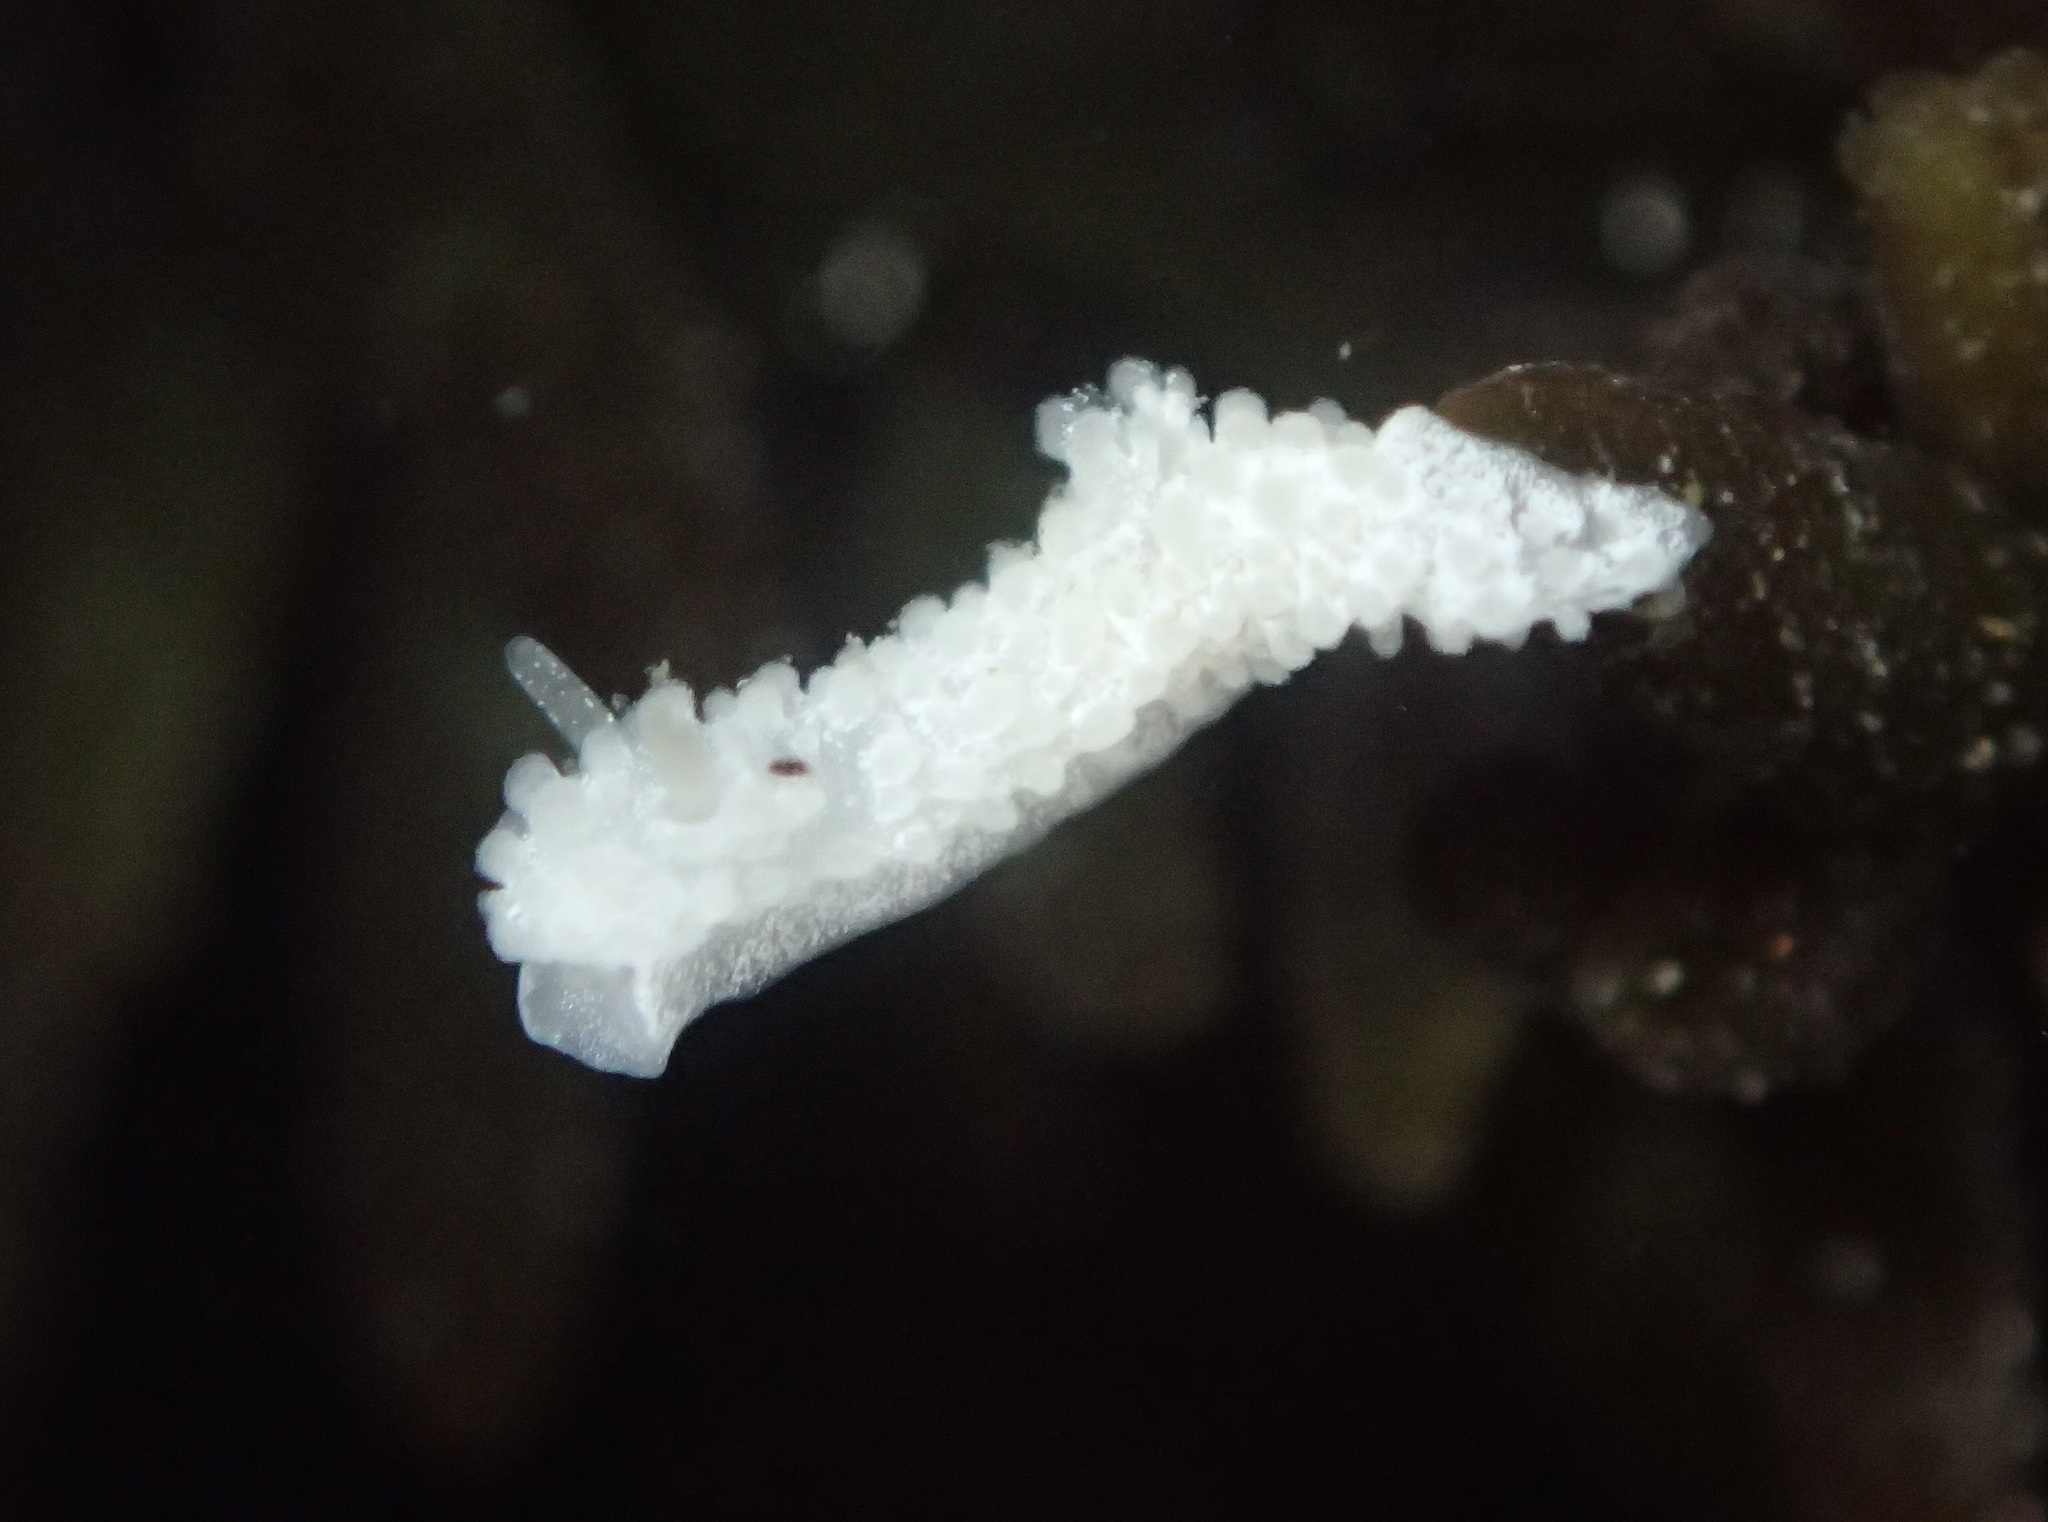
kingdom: Animalia
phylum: Mollusca
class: Gastropoda
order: Nudibranchia
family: Aegiridae
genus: Aegires
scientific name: Aegires albopunctatus
